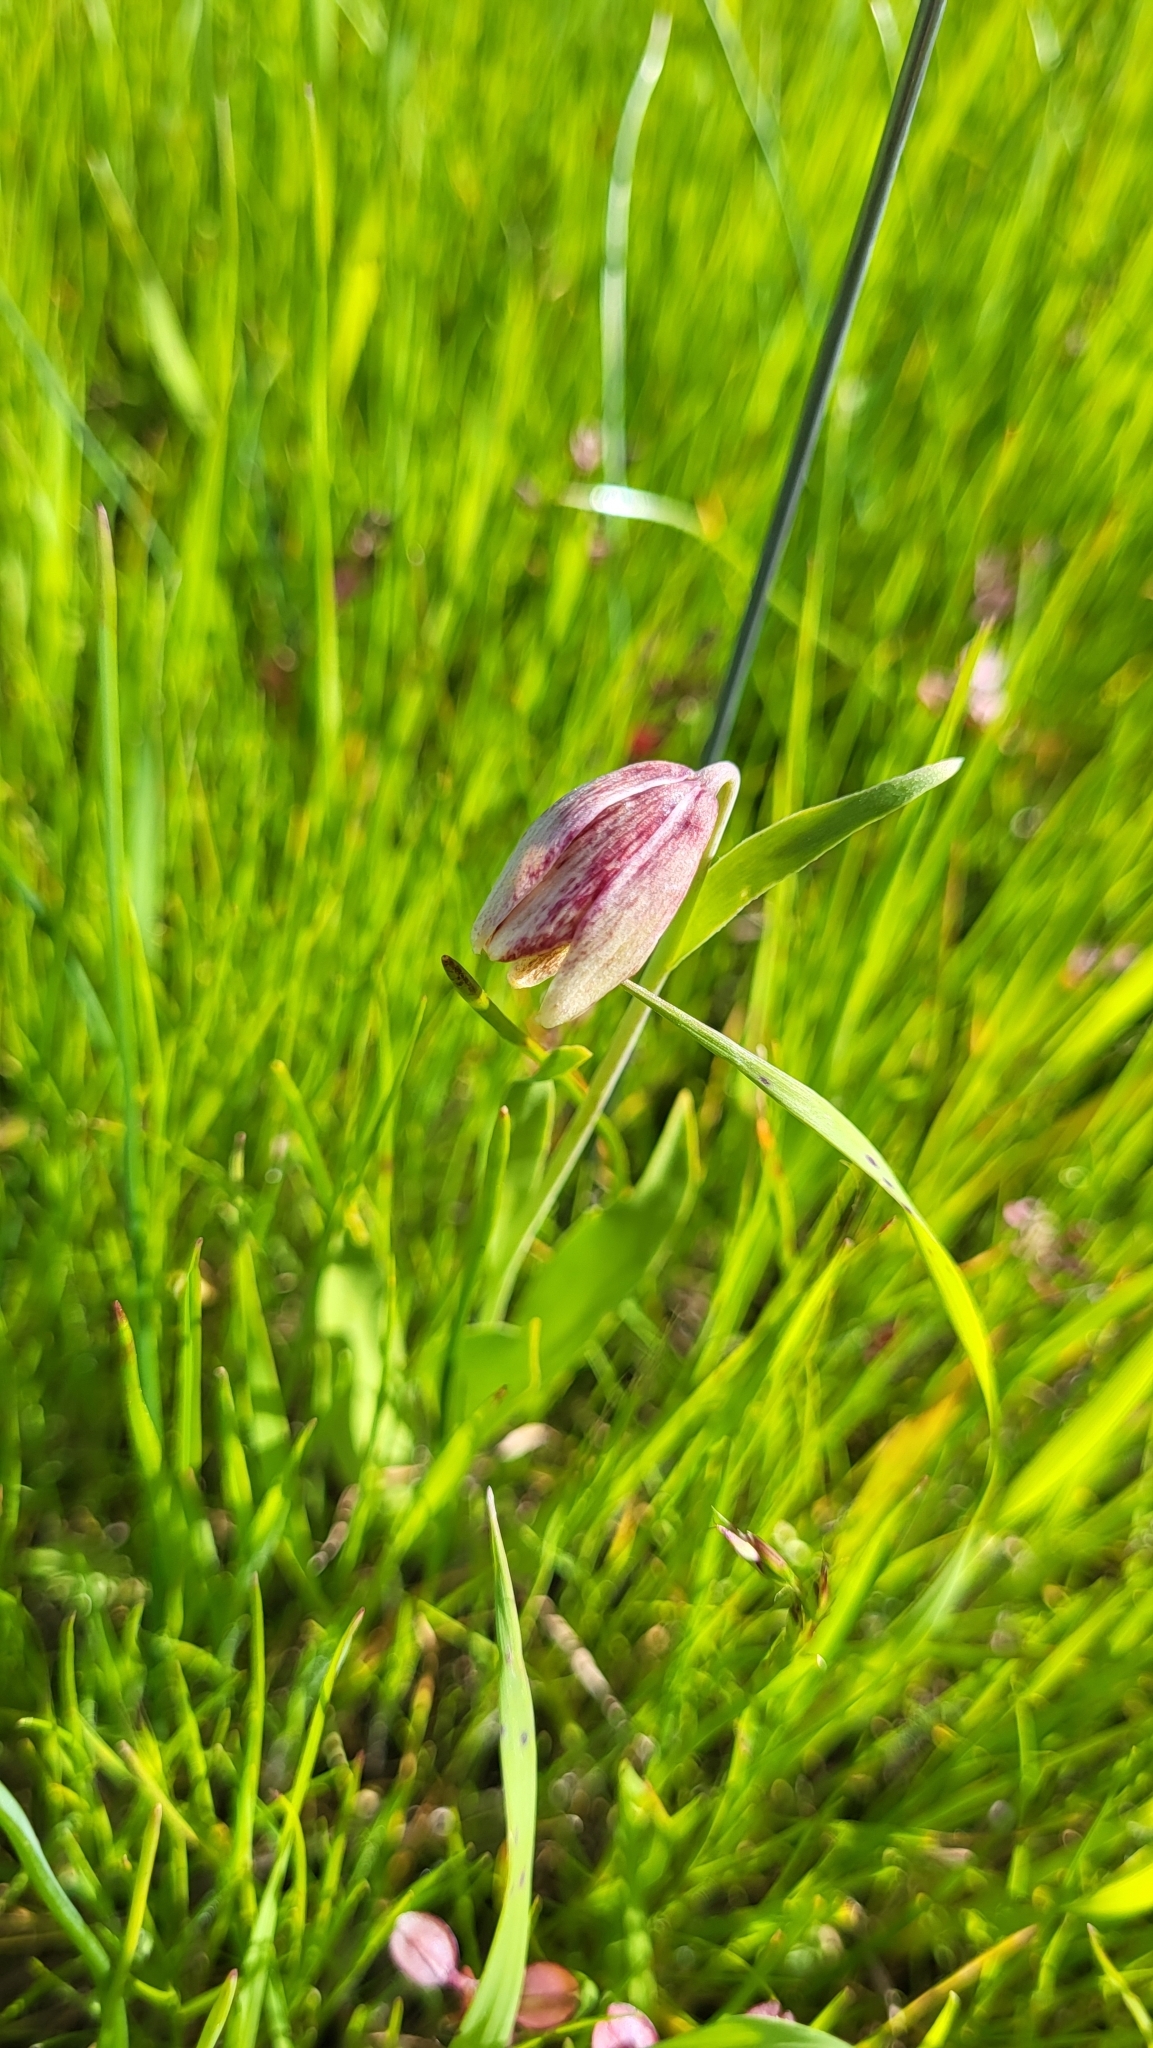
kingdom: Plantae
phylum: Tracheophyta
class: Liliopsida
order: Liliales
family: Liliaceae
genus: Fritillaria
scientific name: Fritillaria agrestis
